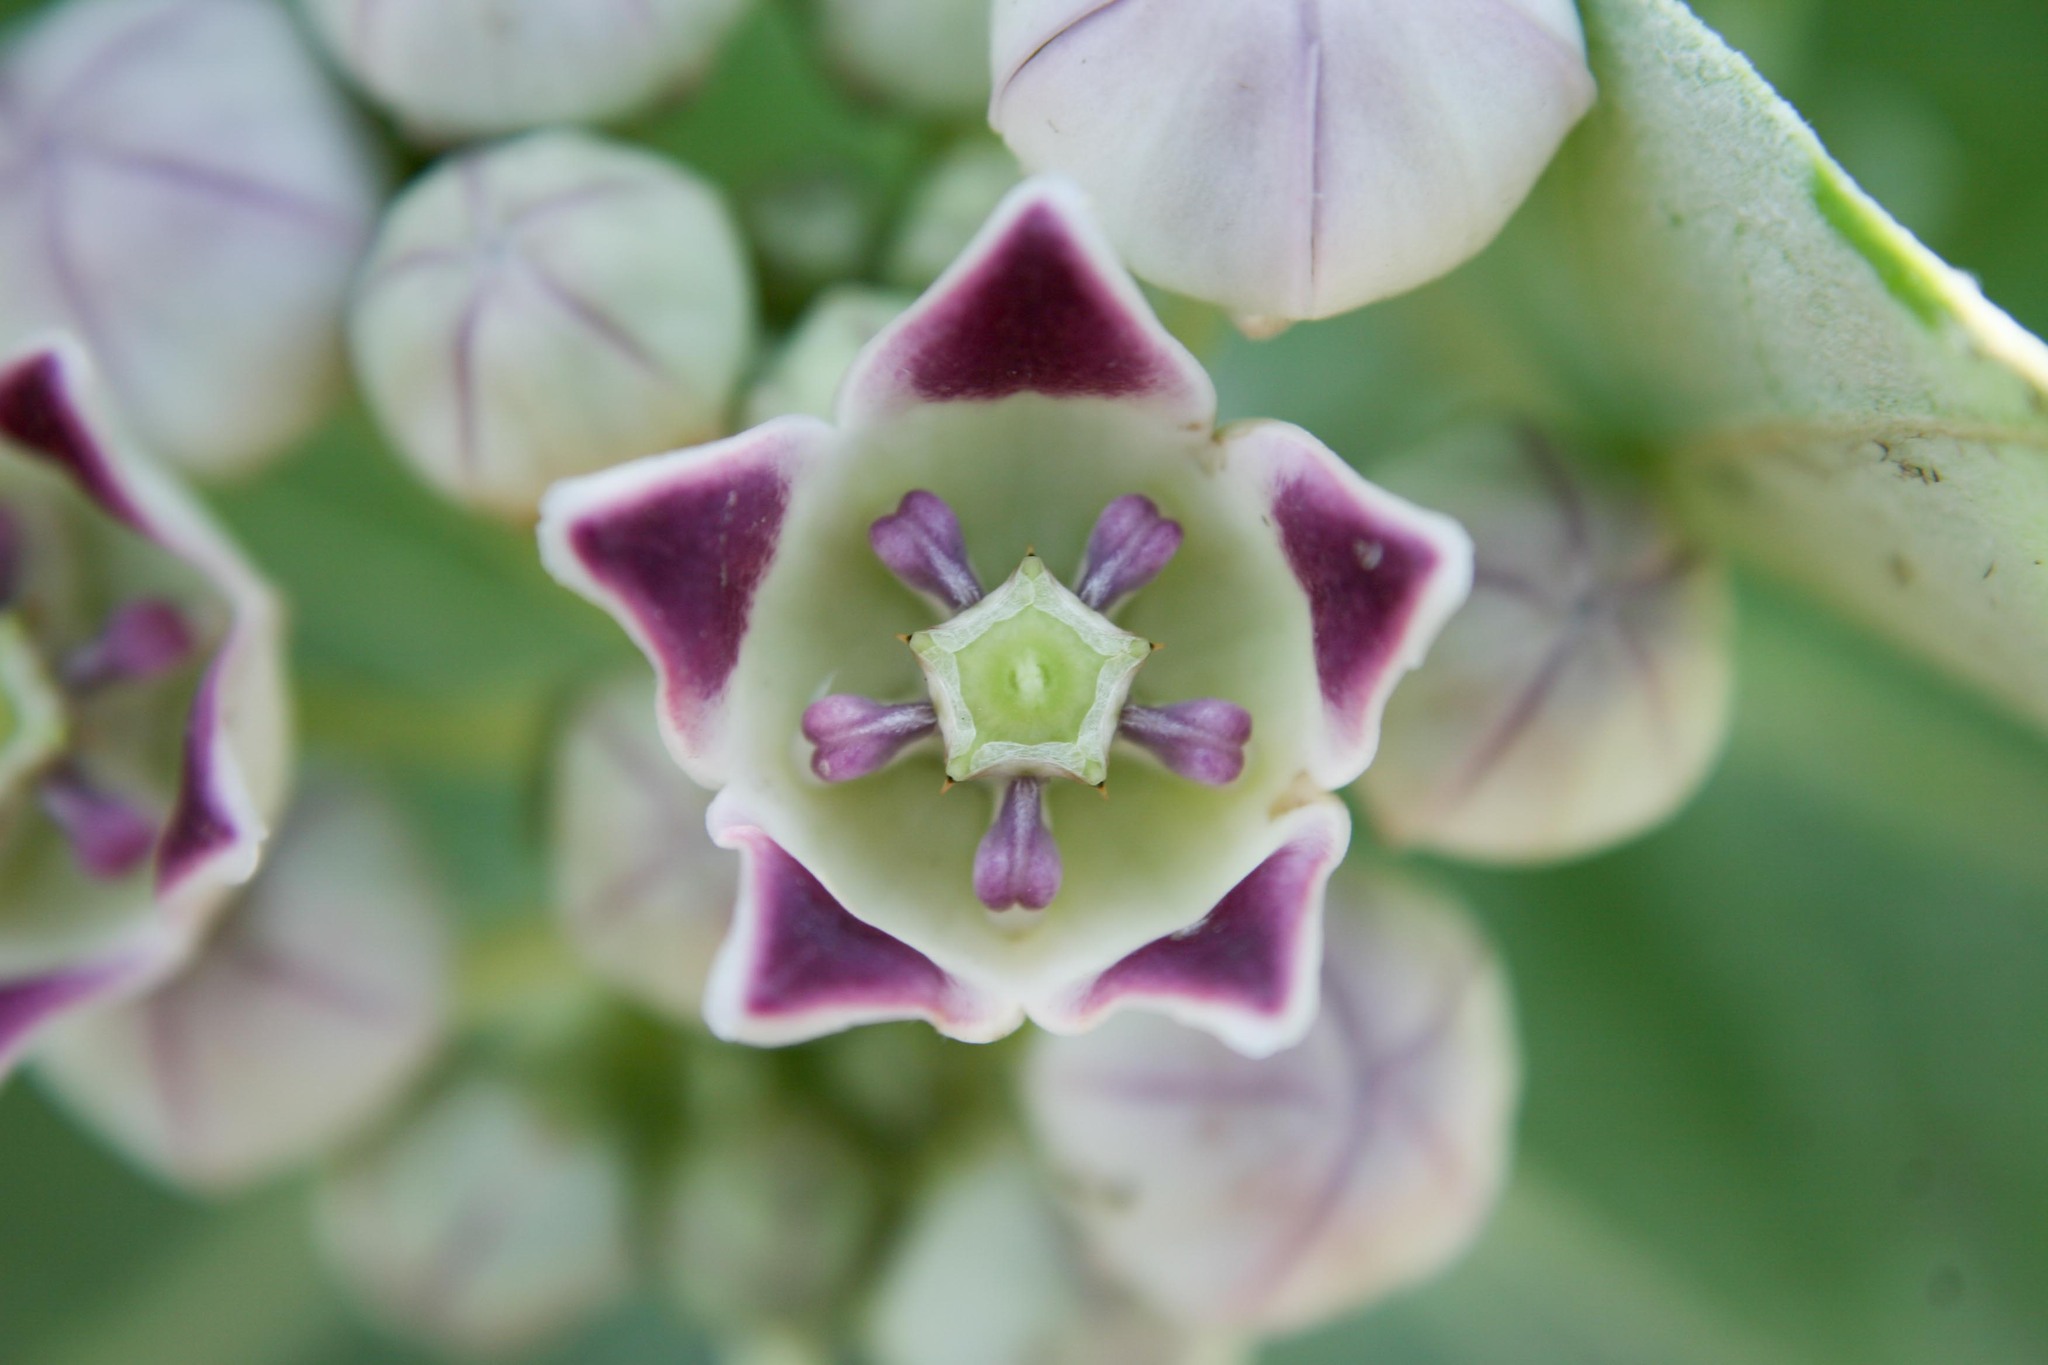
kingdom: Plantae
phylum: Tracheophyta
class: Magnoliopsida
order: Gentianales
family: Apocynaceae
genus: Calotropis
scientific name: Calotropis procera
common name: Roostertree
